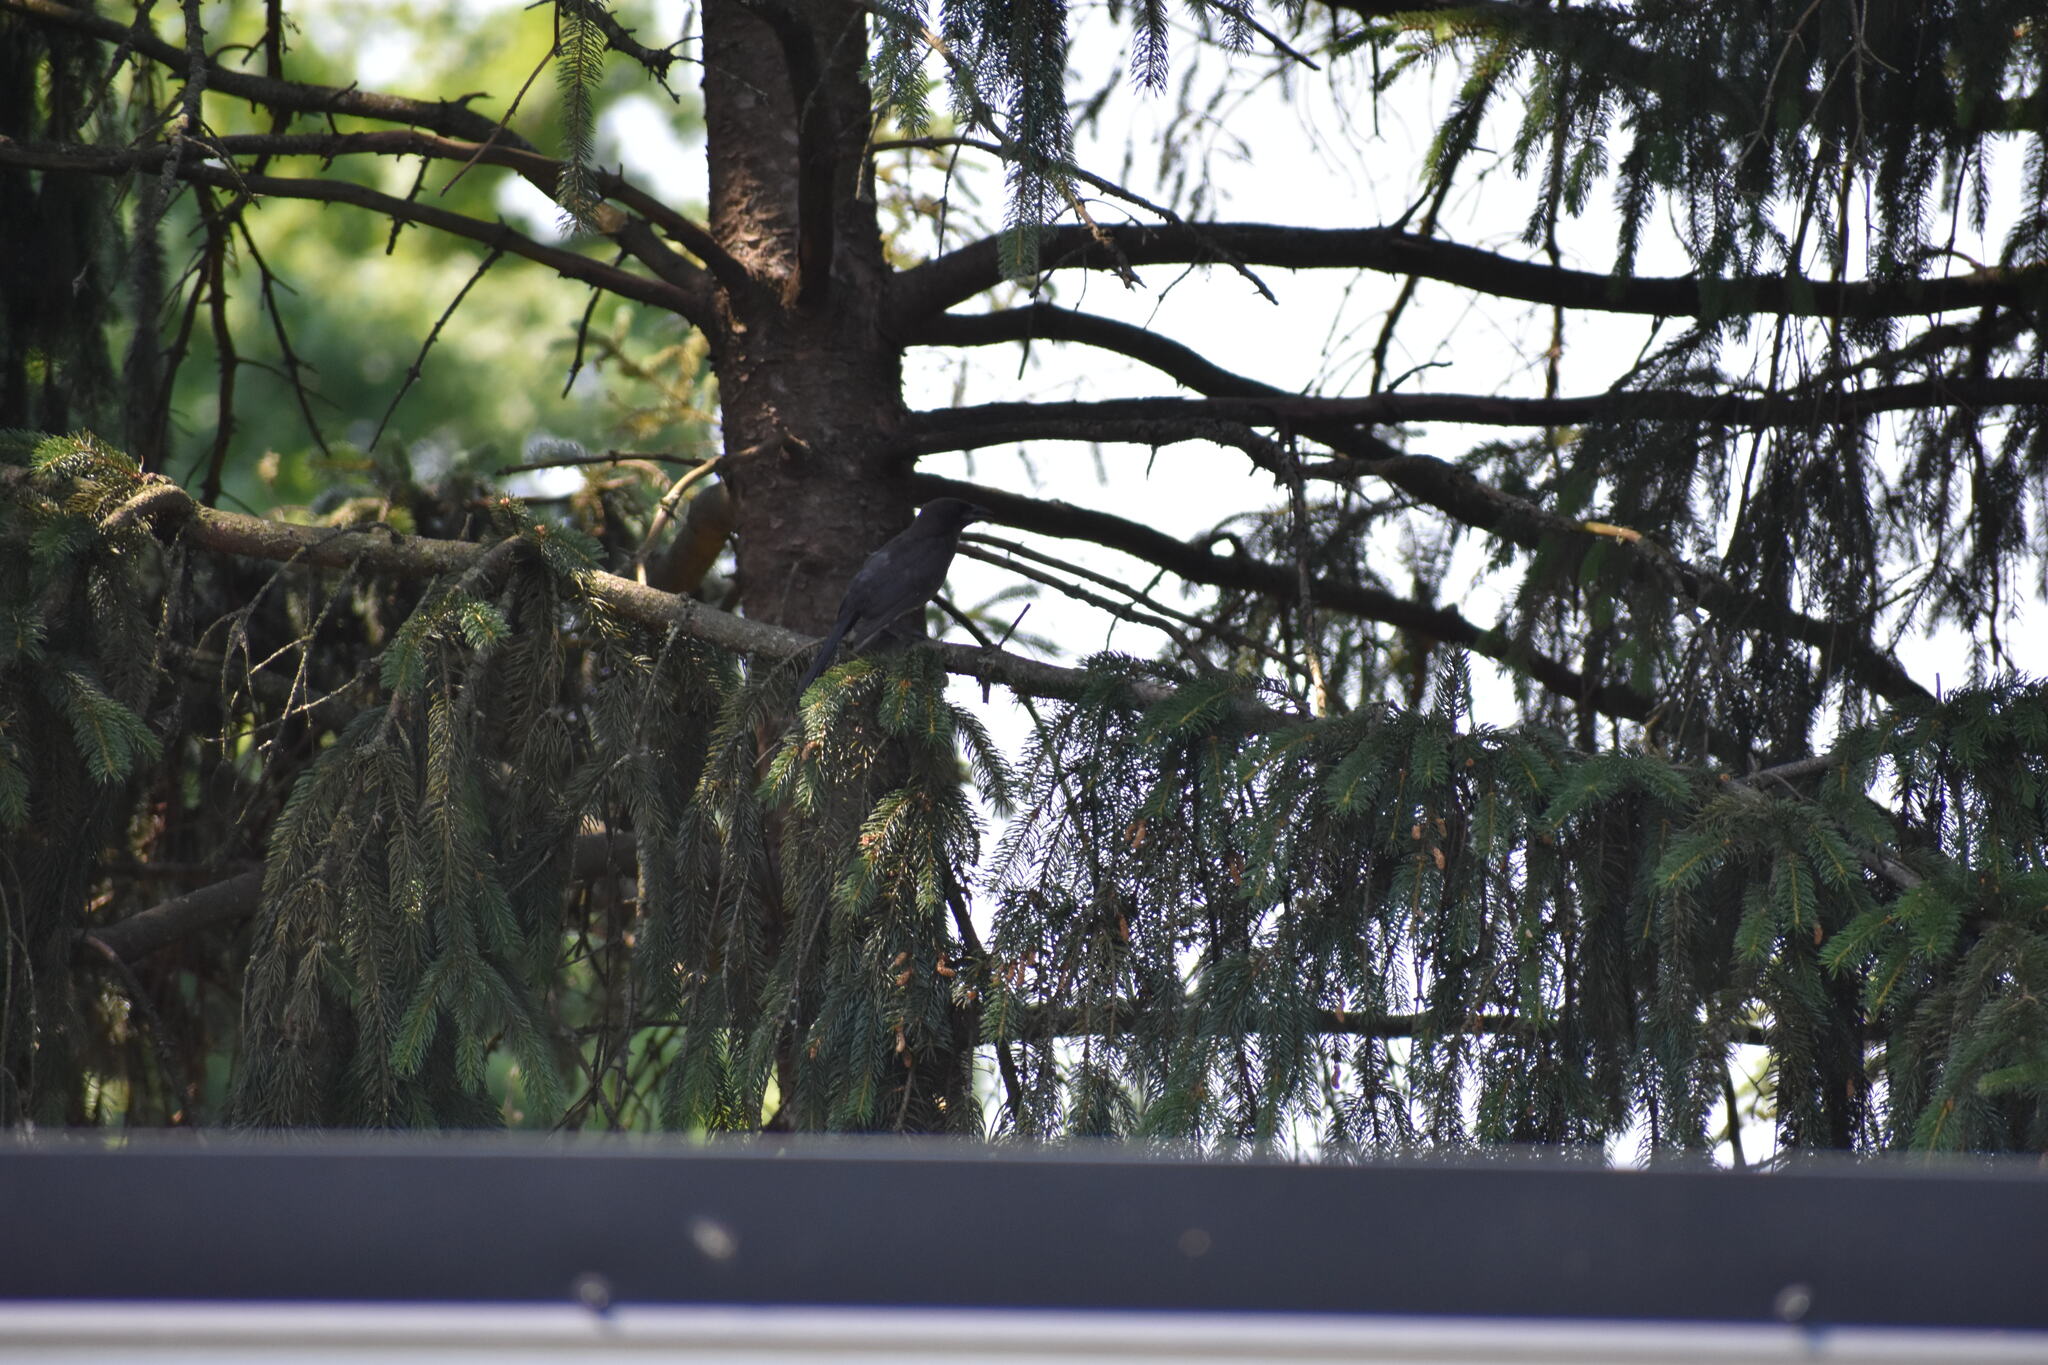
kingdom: Animalia
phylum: Chordata
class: Aves
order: Passeriformes
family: Mimidae
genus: Dumetella
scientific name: Dumetella carolinensis
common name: Gray catbird
